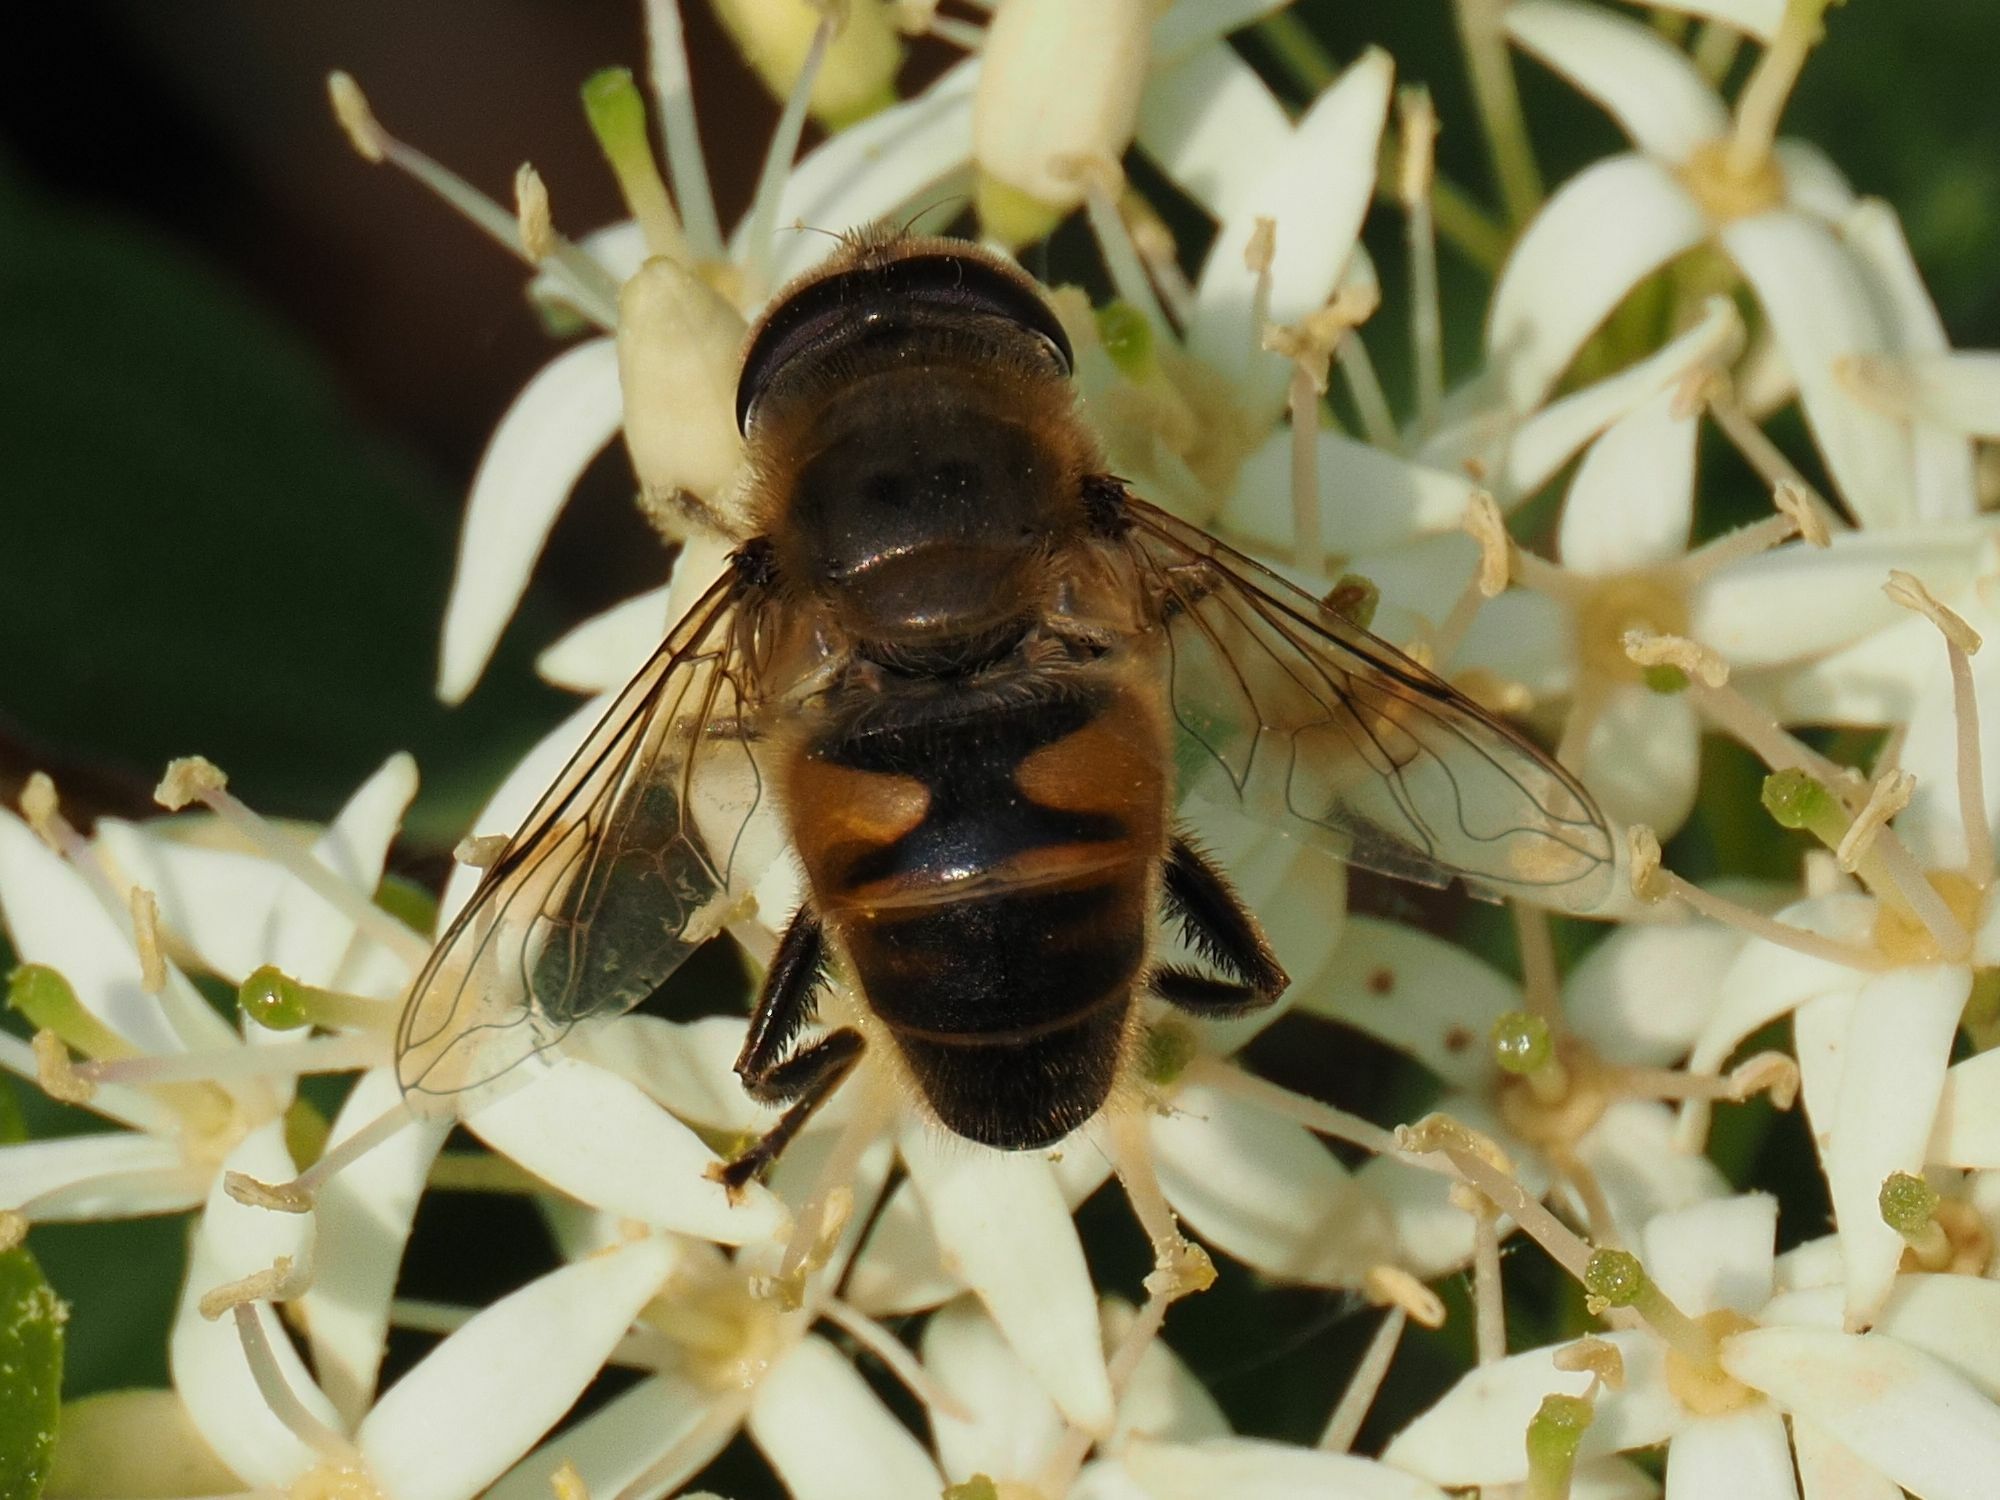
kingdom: Animalia
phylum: Arthropoda
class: Insecta
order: Diptera
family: Syrphidae
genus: Eristalis
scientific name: Eristalis tenax
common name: Drone fly
